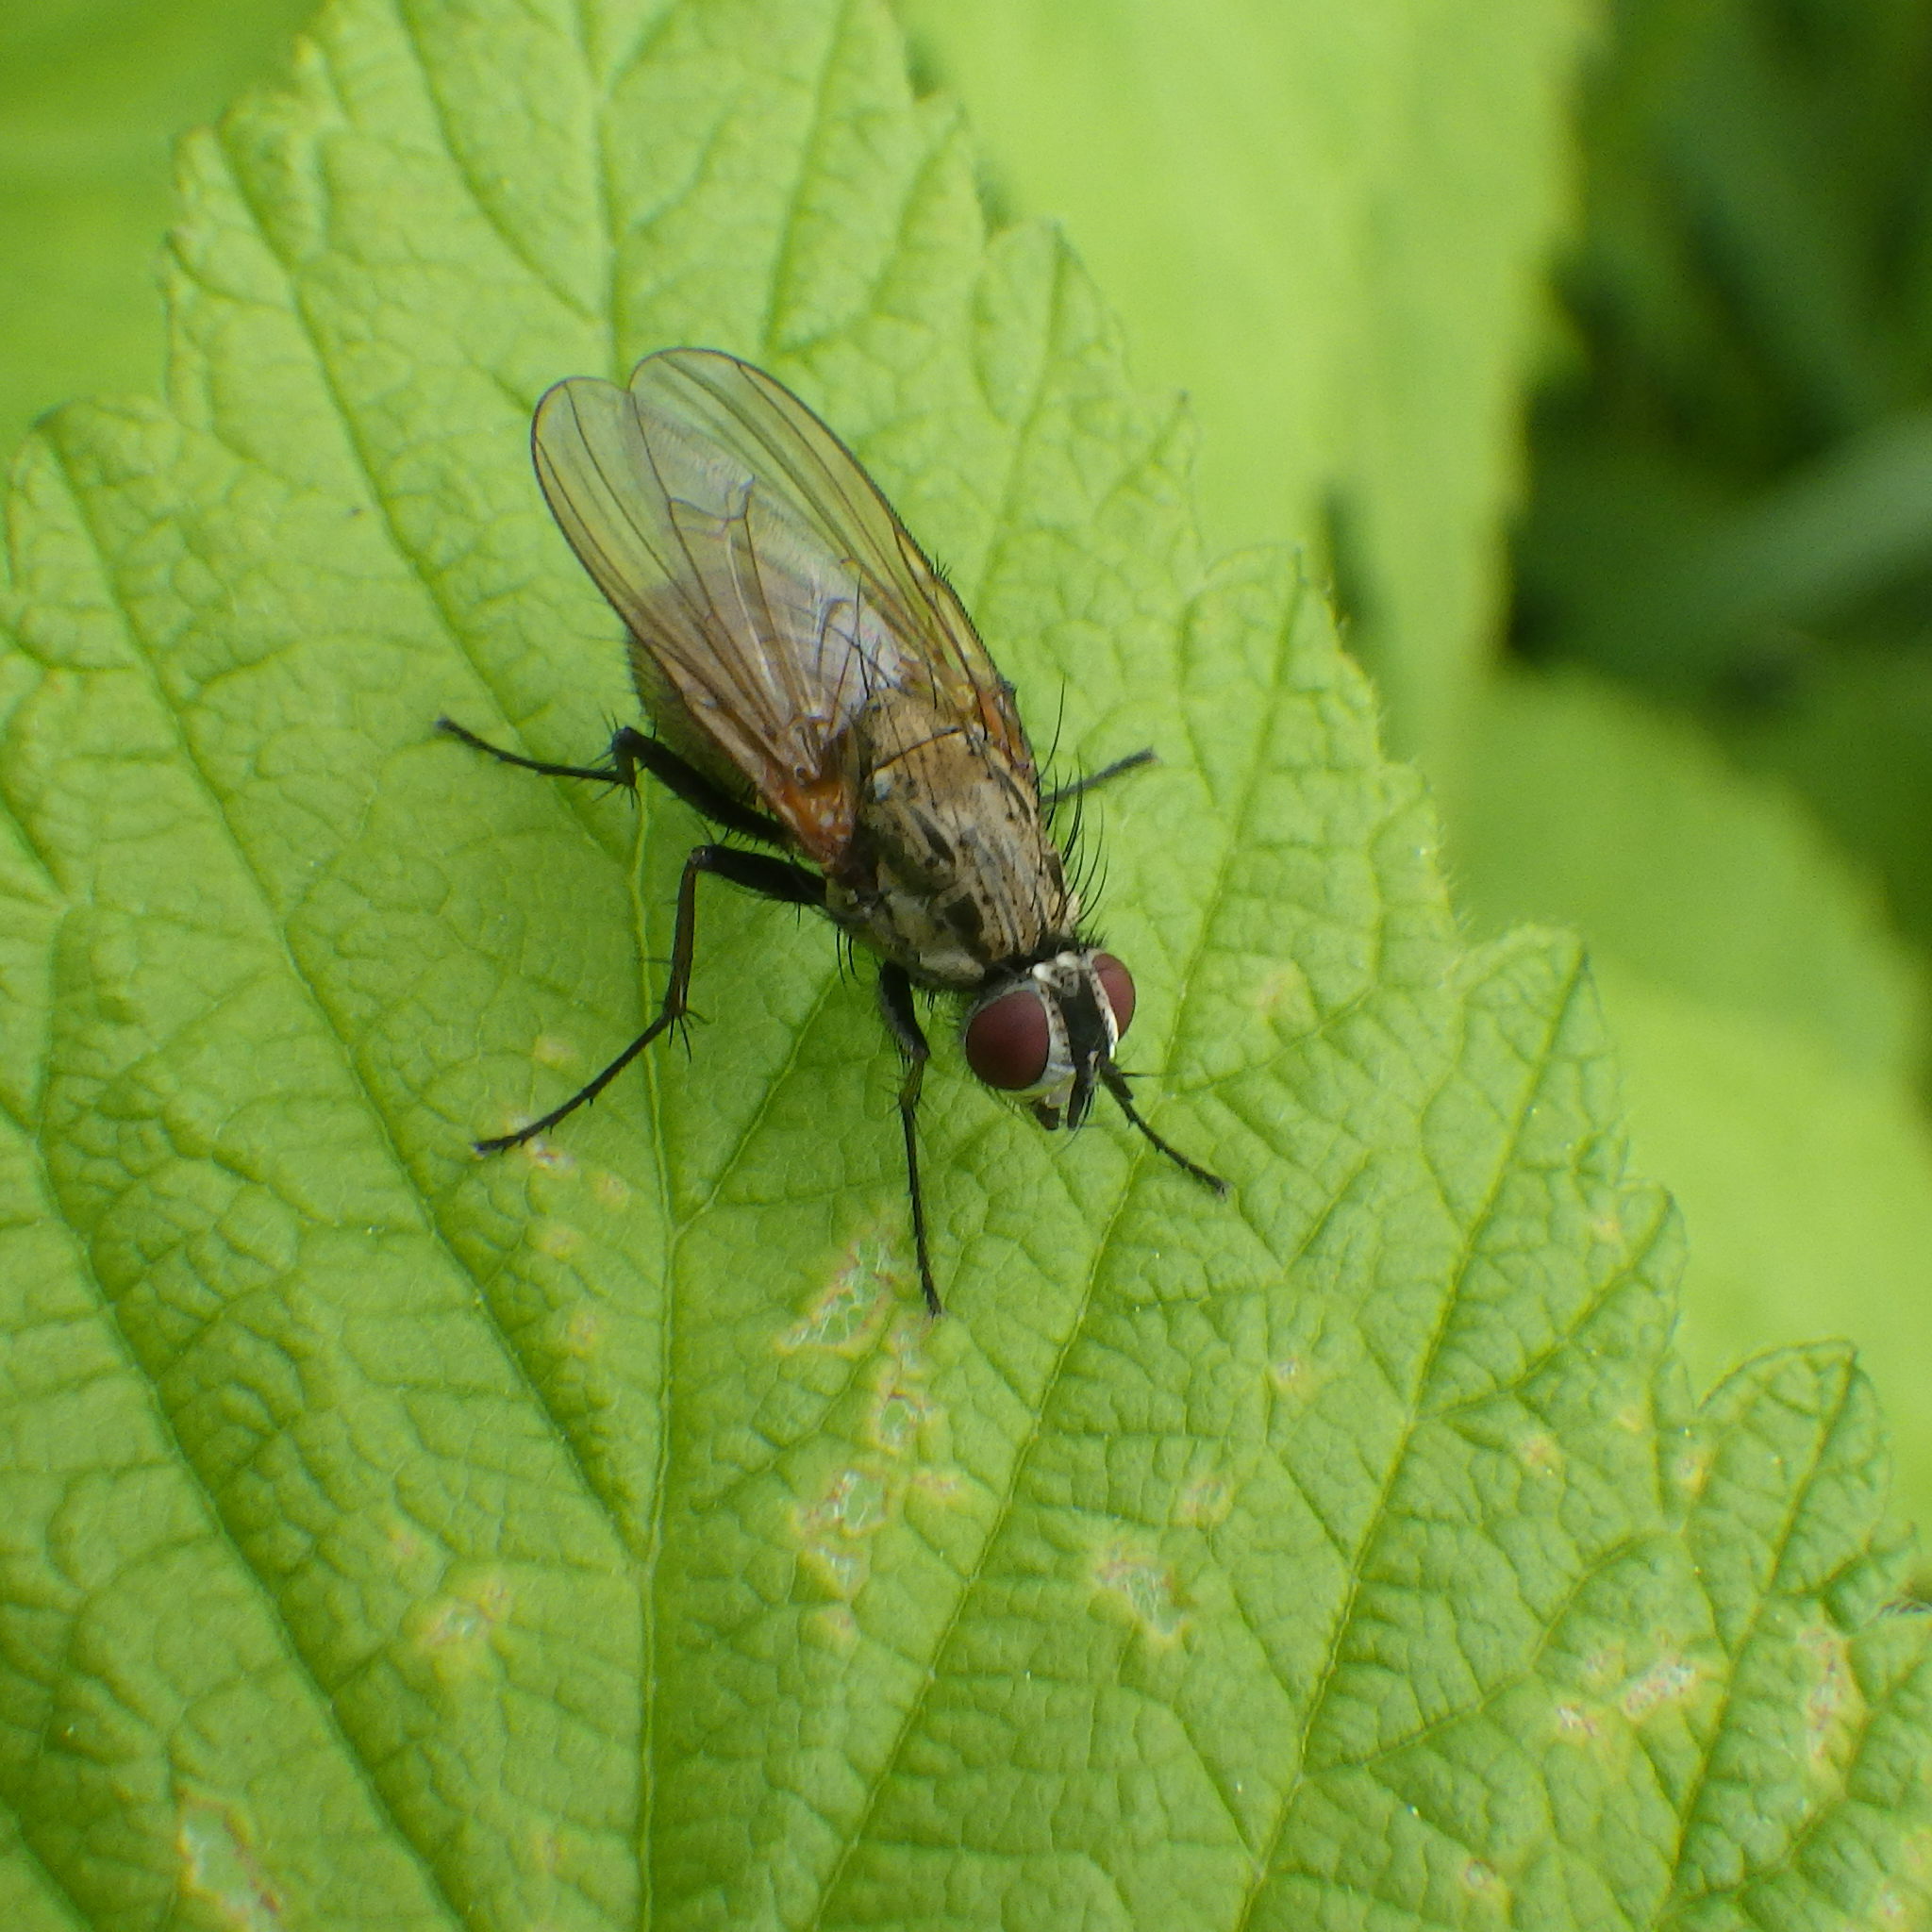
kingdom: Animalia
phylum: Arthropoda
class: Insecta
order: Diptera
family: Anthomyiidae
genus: Hydrophoria
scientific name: Hydrophoria lancifer
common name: Root-maggot fly
